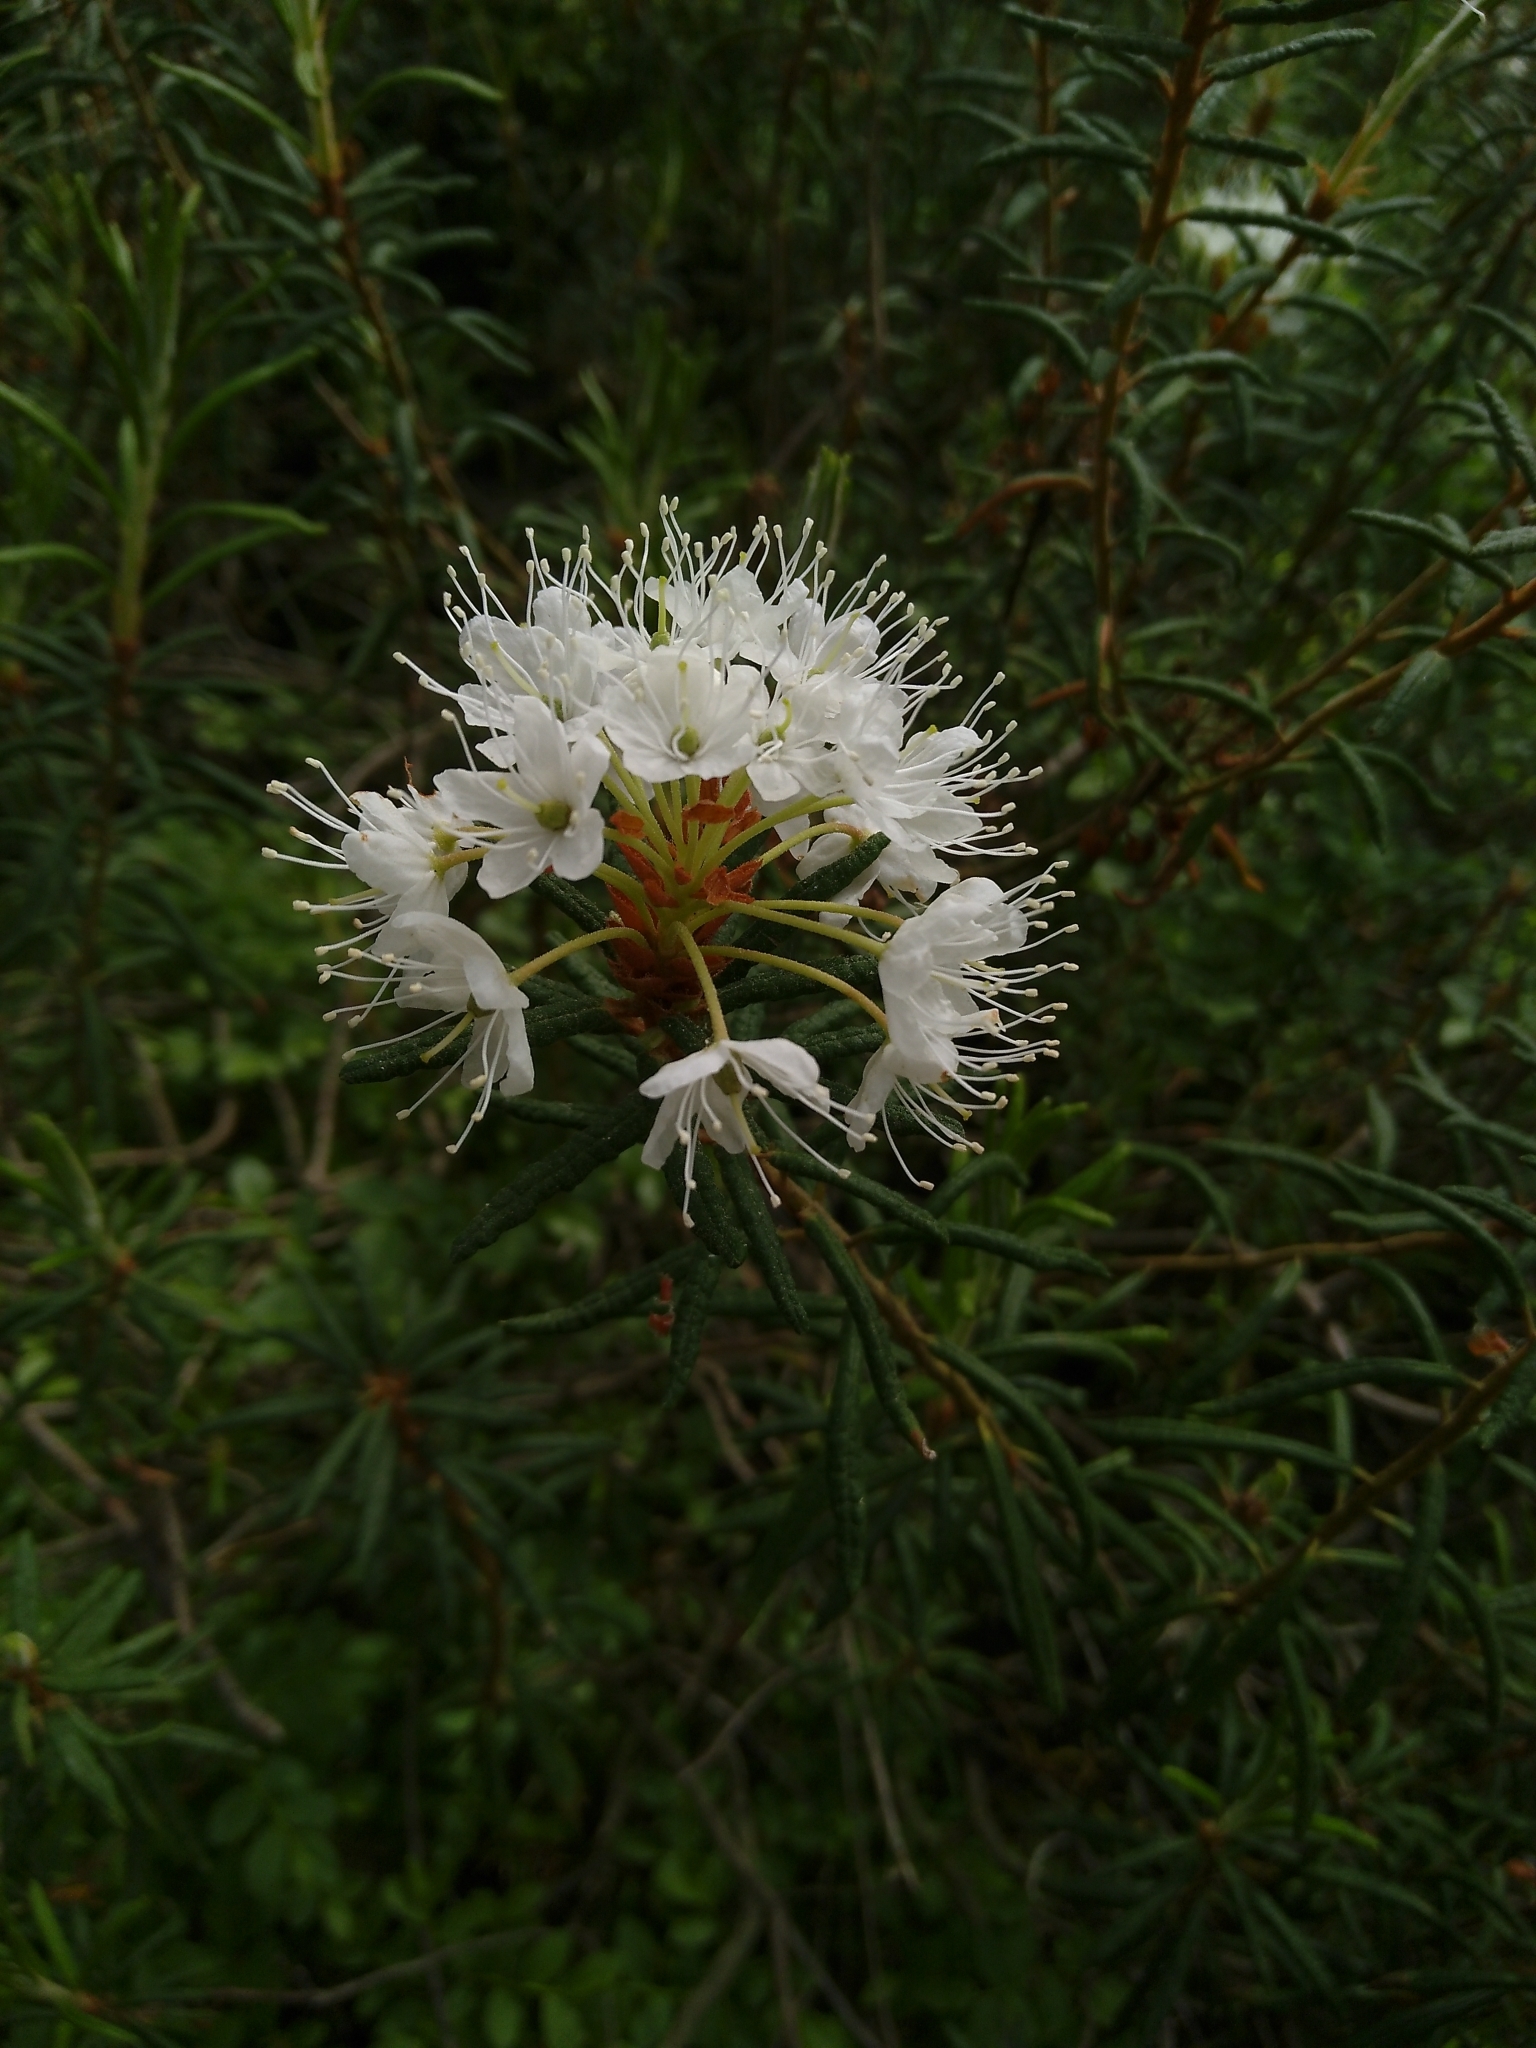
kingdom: Plantae
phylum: Tracheophyta
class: Magnoliopsida
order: Ericales
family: Ericaceae
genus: Rhododendron
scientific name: Rhododendron tomentosum
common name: Marsh labrador tea
